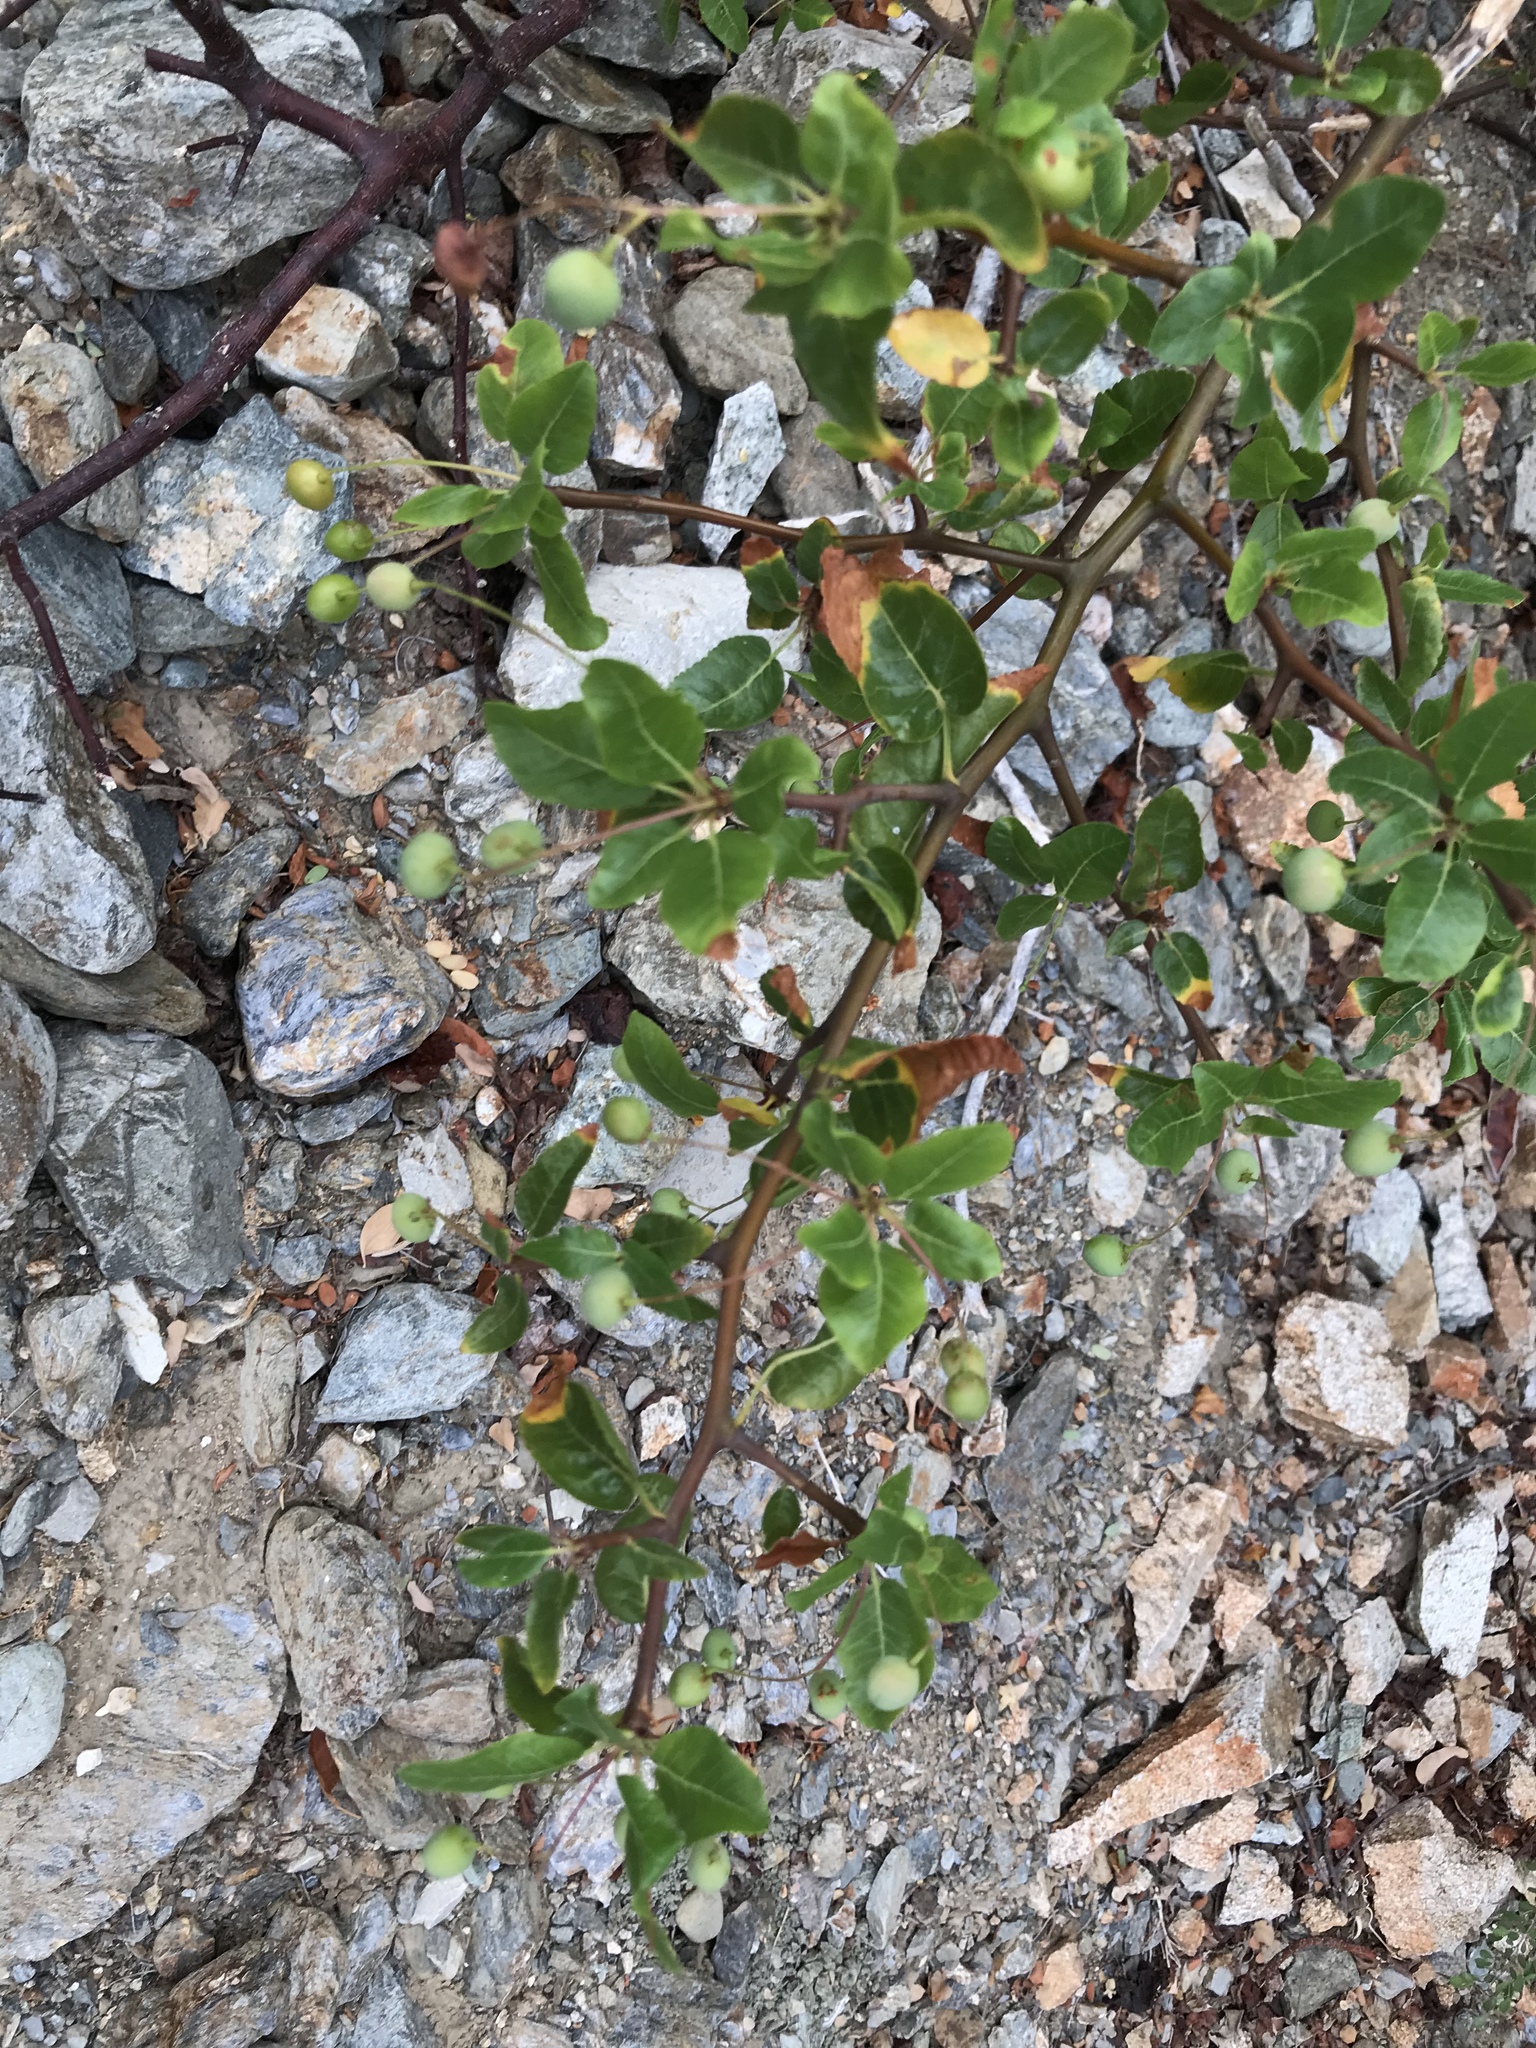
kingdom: Plantae
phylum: Tracheophyta
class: Magnoliopsida
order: Sapindales
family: Burseraceae
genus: Bursera
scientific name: Bursera epinnata
